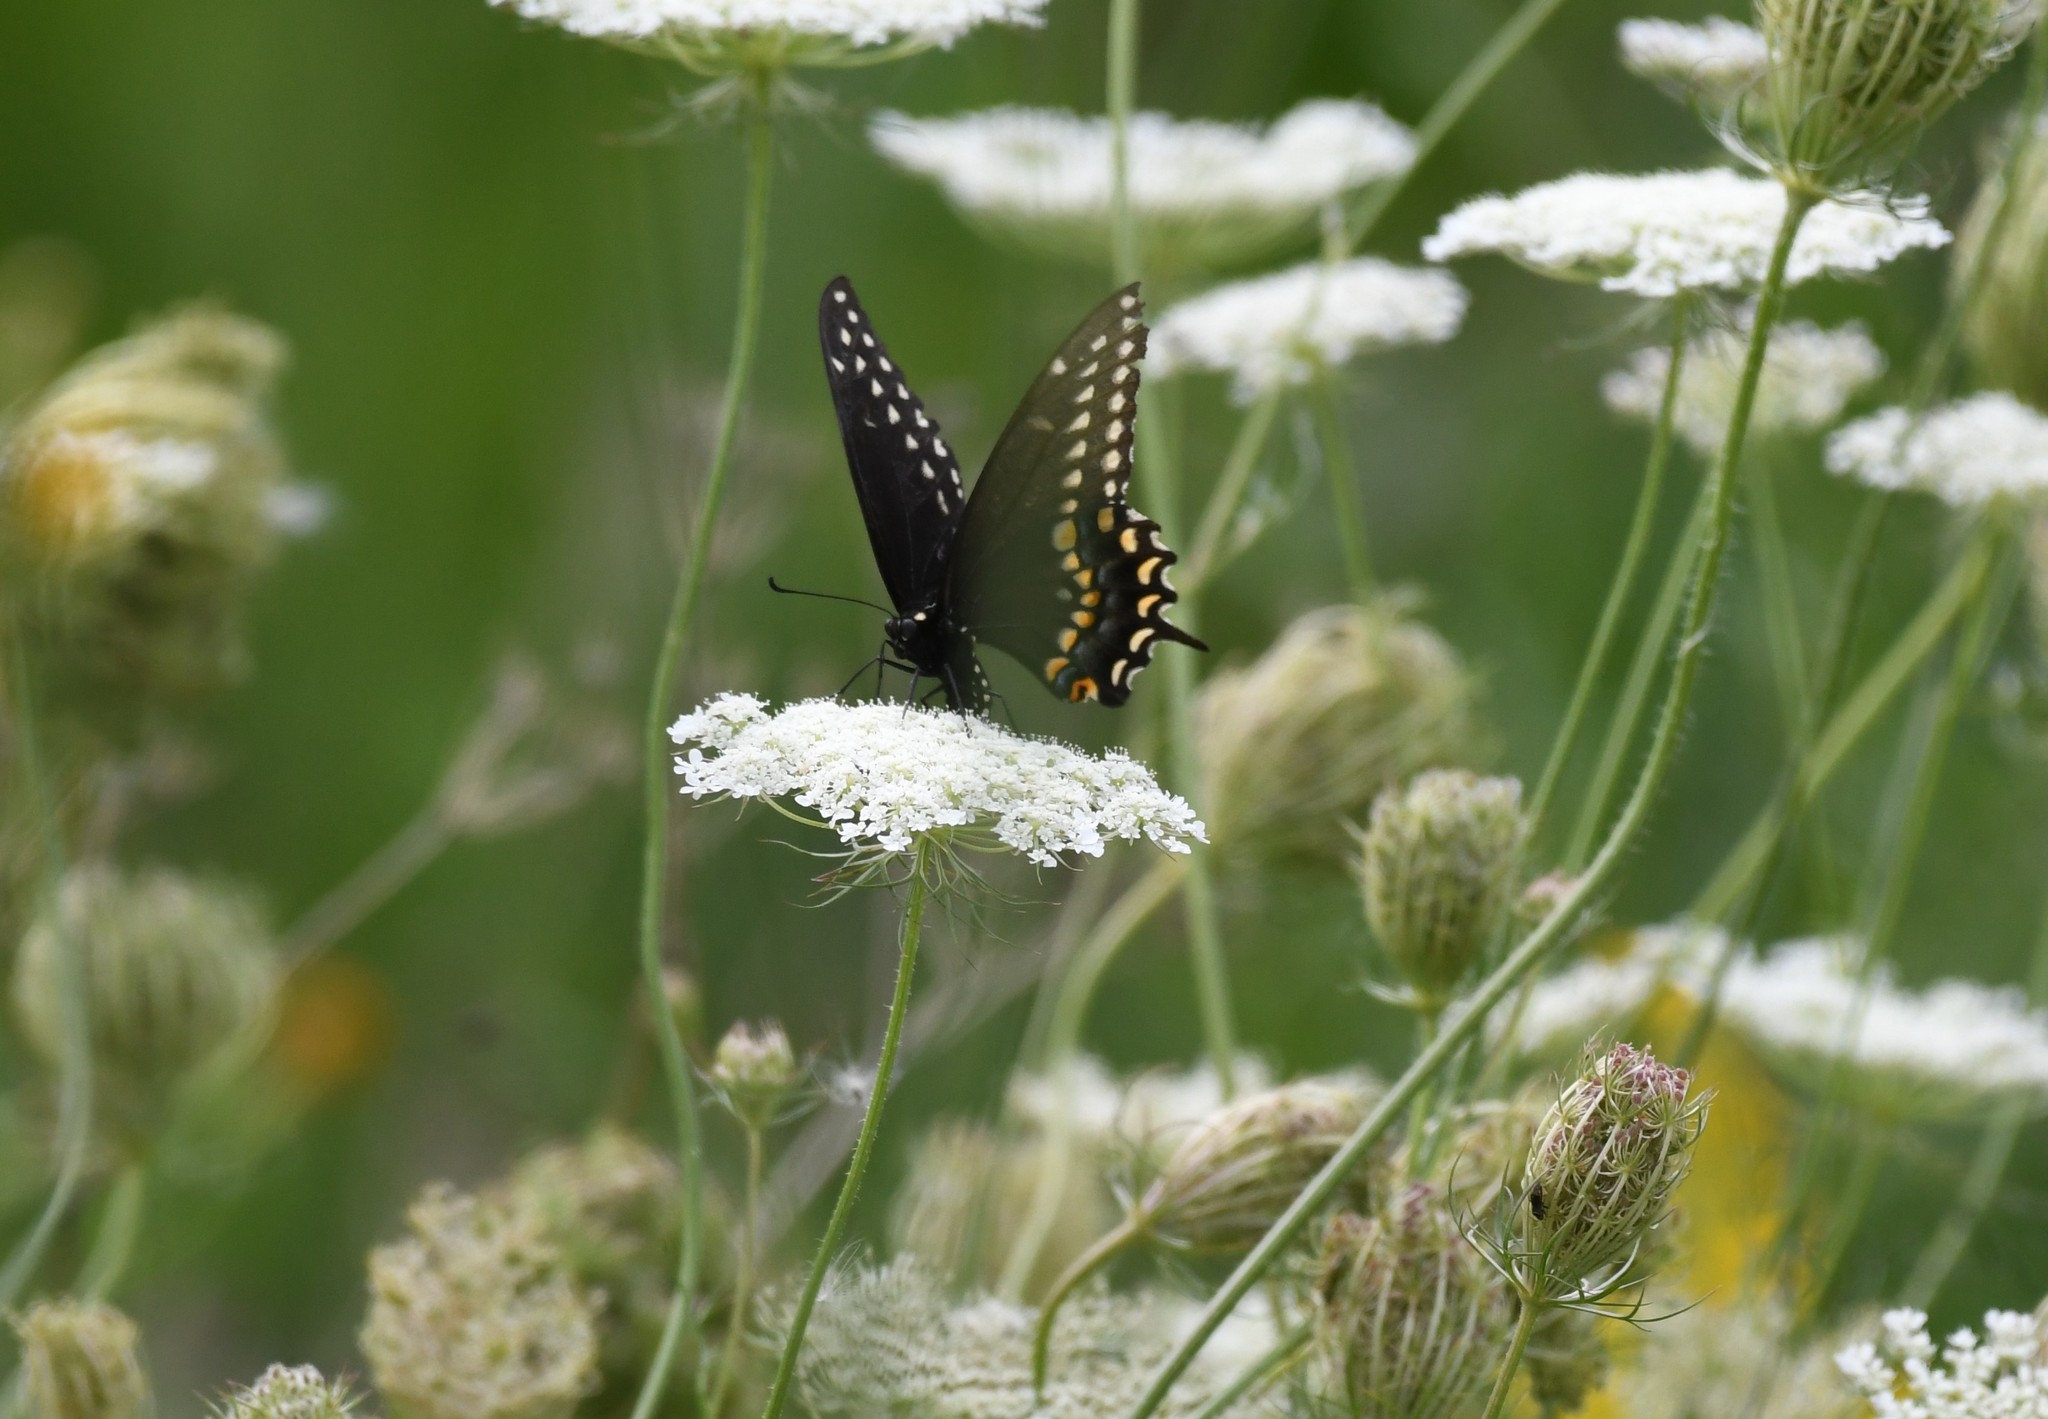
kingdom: Animalia
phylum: Arthropoda
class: Insecta
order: Lepidoptera
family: Papilionidae
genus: Papilio
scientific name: Papilio polyxenes
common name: Black swallowtail
